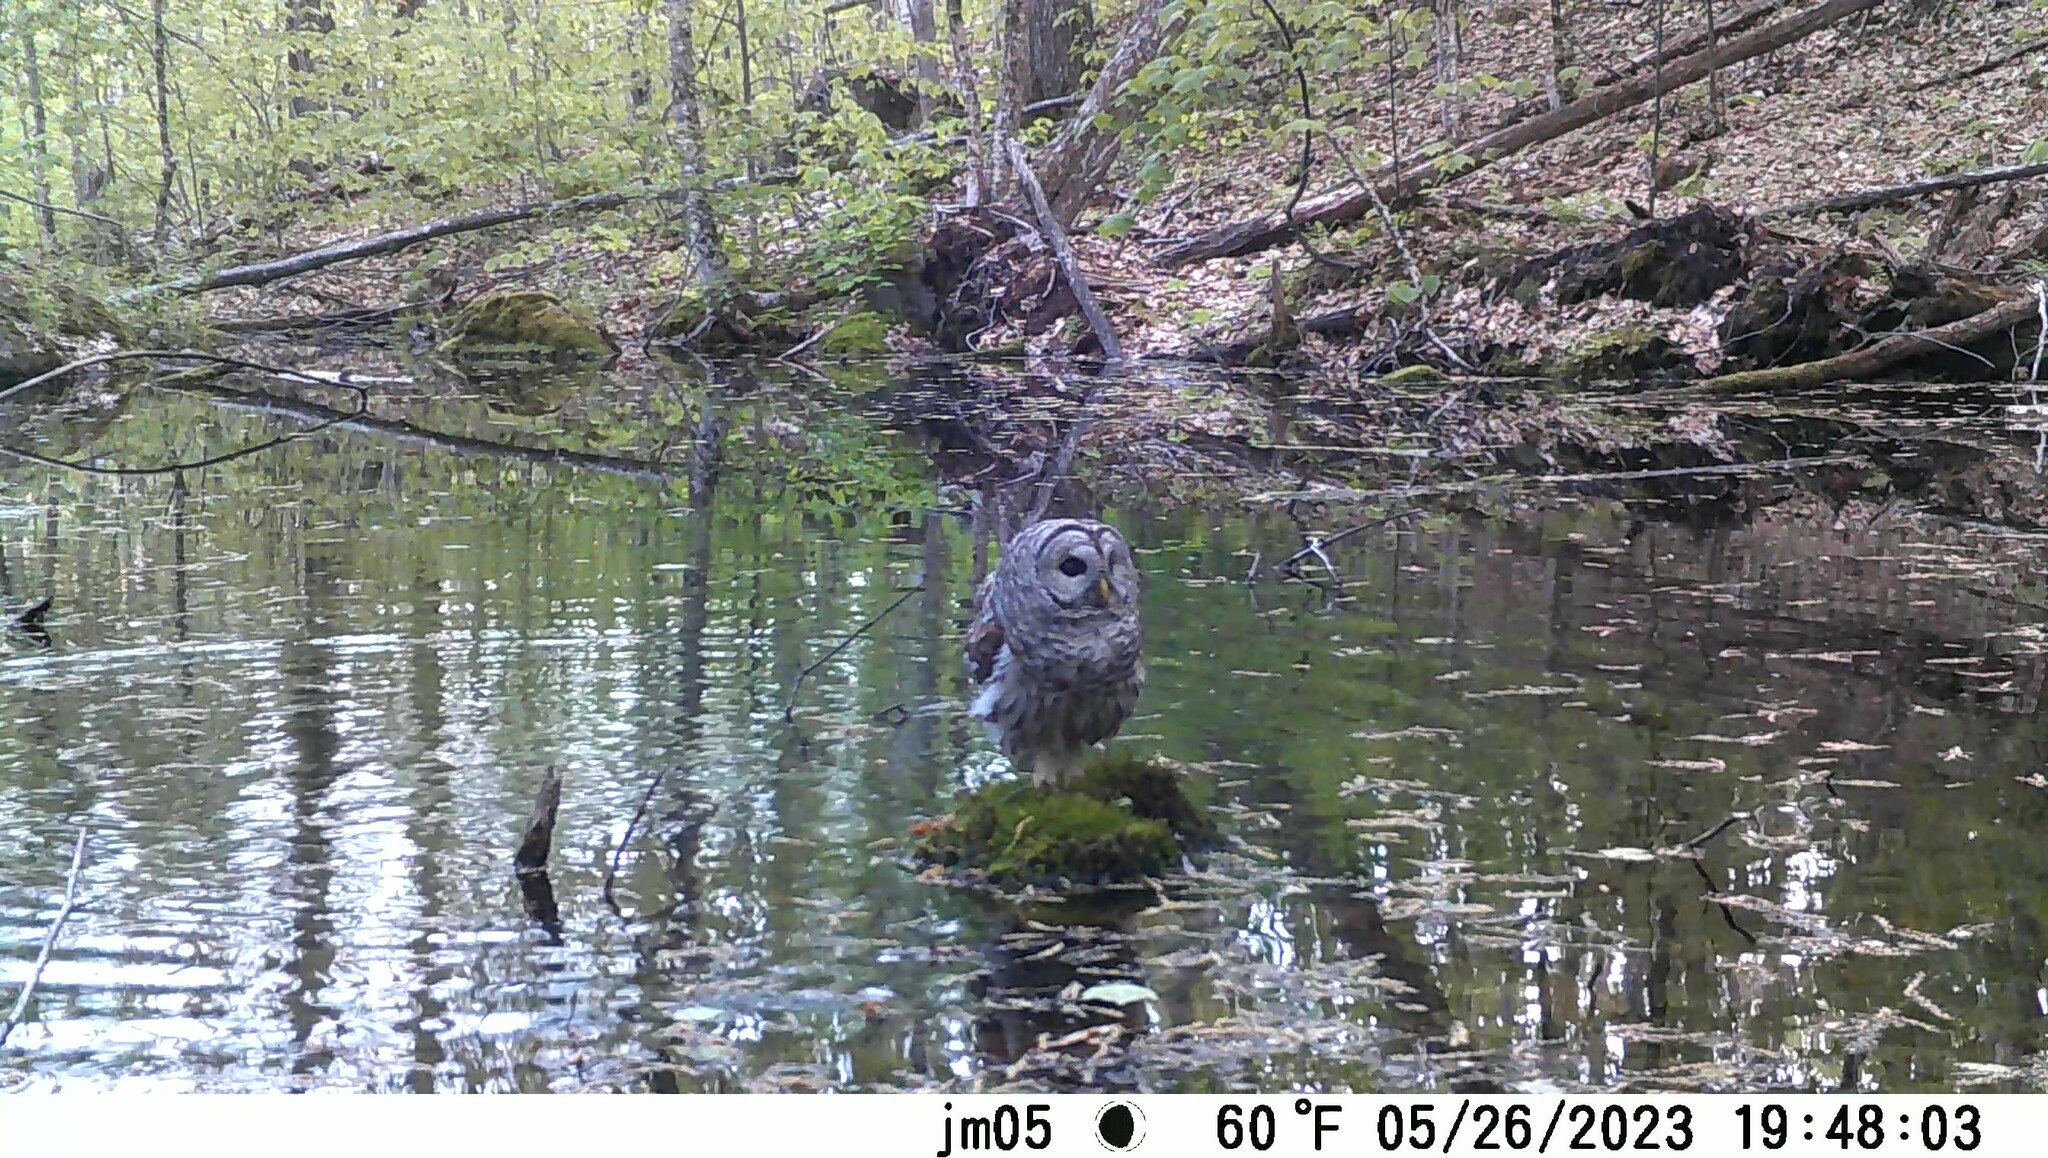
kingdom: Animalia
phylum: Chordata
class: Aves
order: Strigiformes
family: Strigidae
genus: Strix
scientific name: Strix varia
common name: Barred owl
